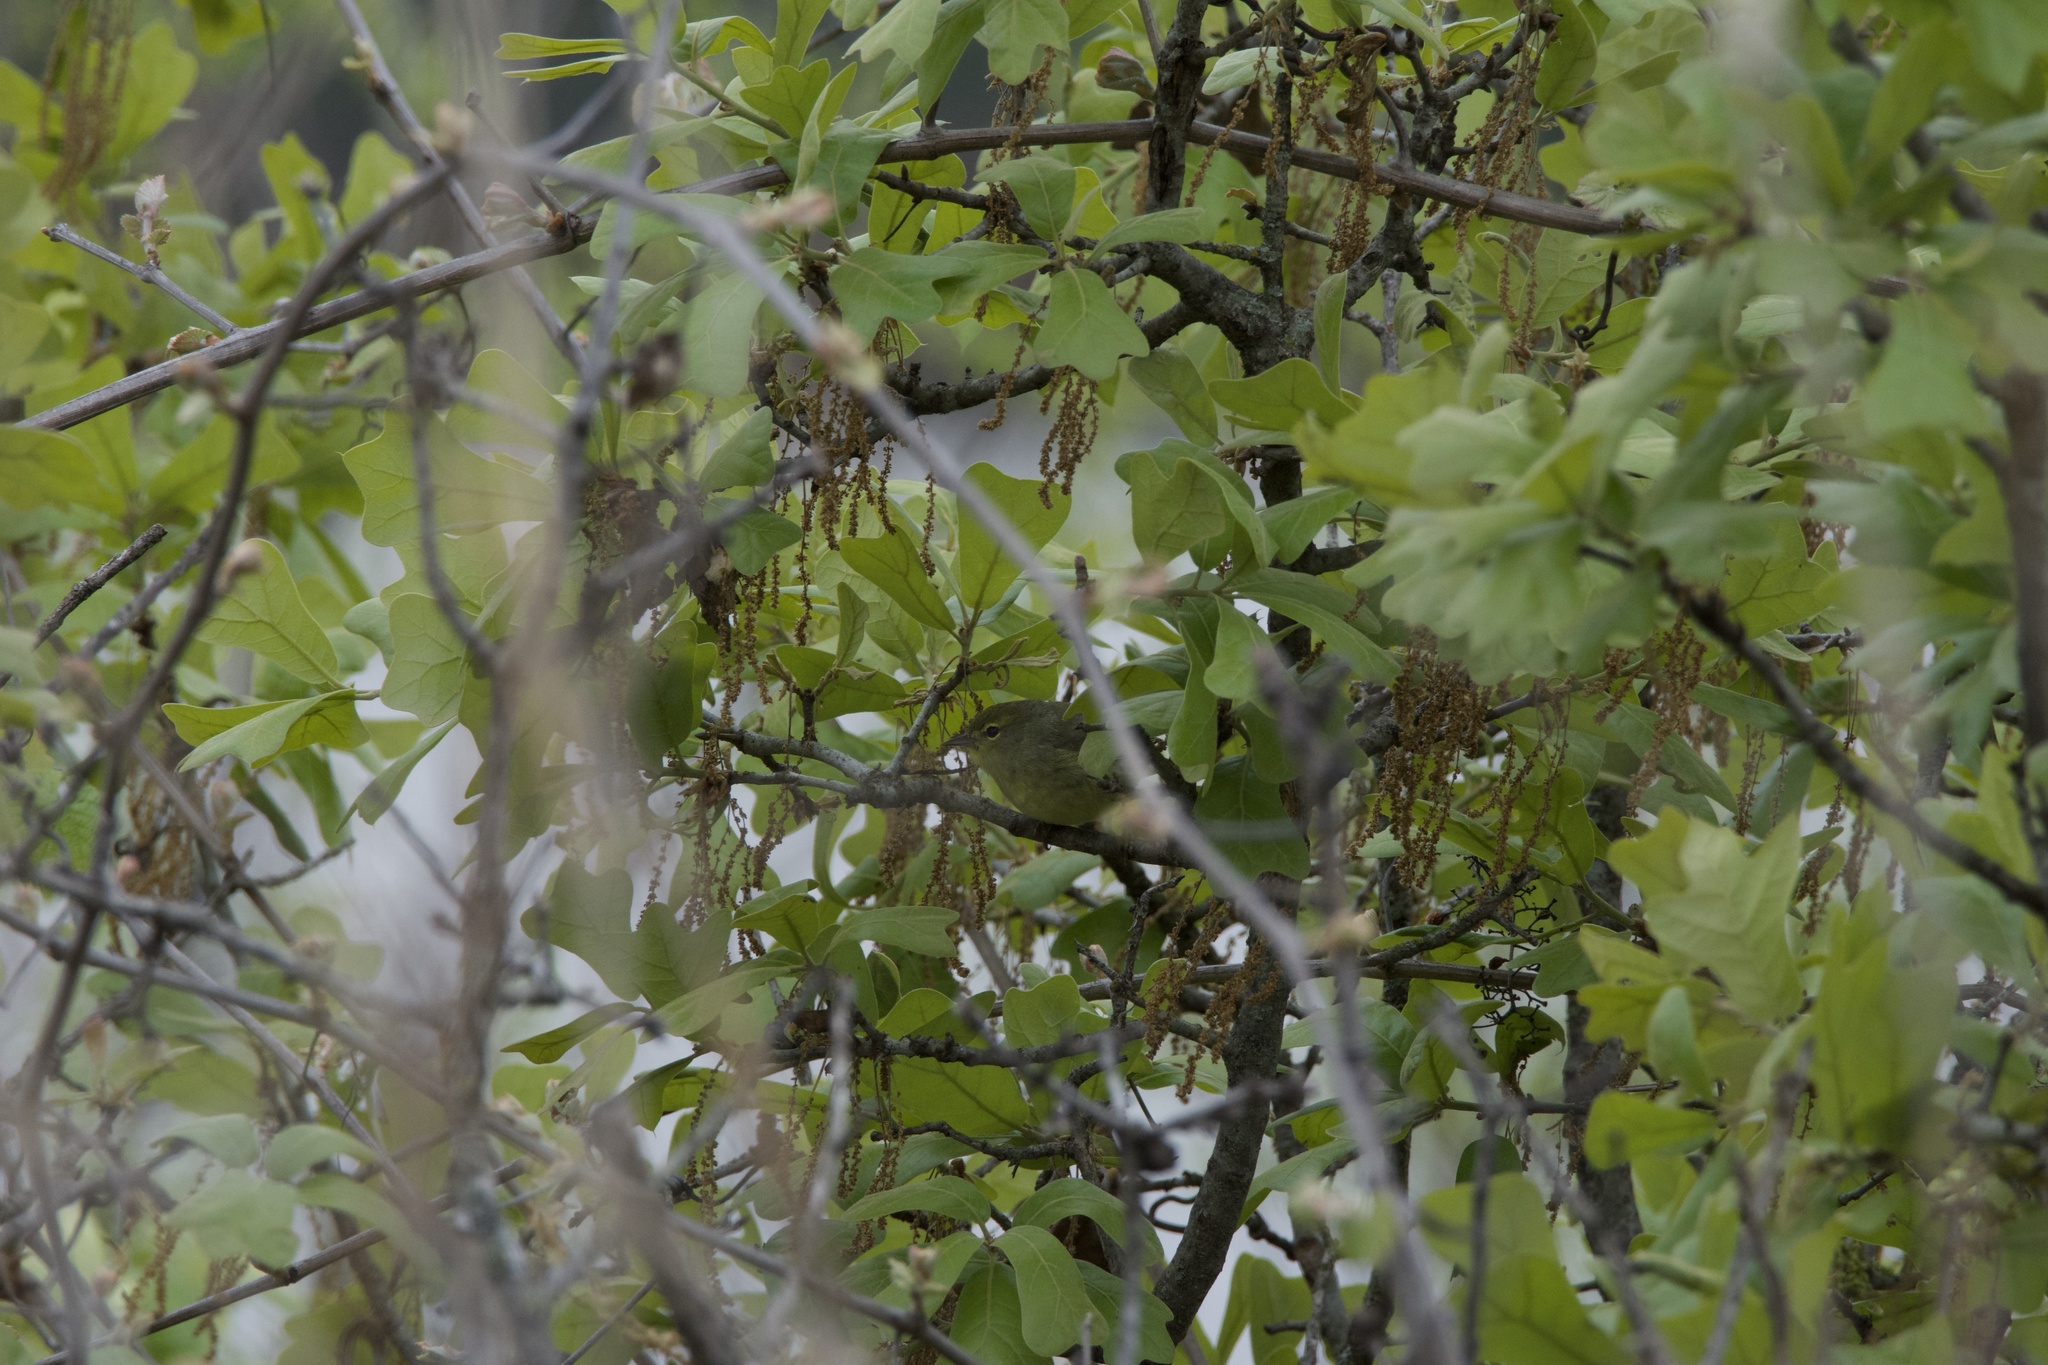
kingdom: Animalia
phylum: Chordata
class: Aves
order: Passeriformes
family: Parulidae
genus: Leiothlypis
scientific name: Leiothlypis celata
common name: Orange-crowned warbler
